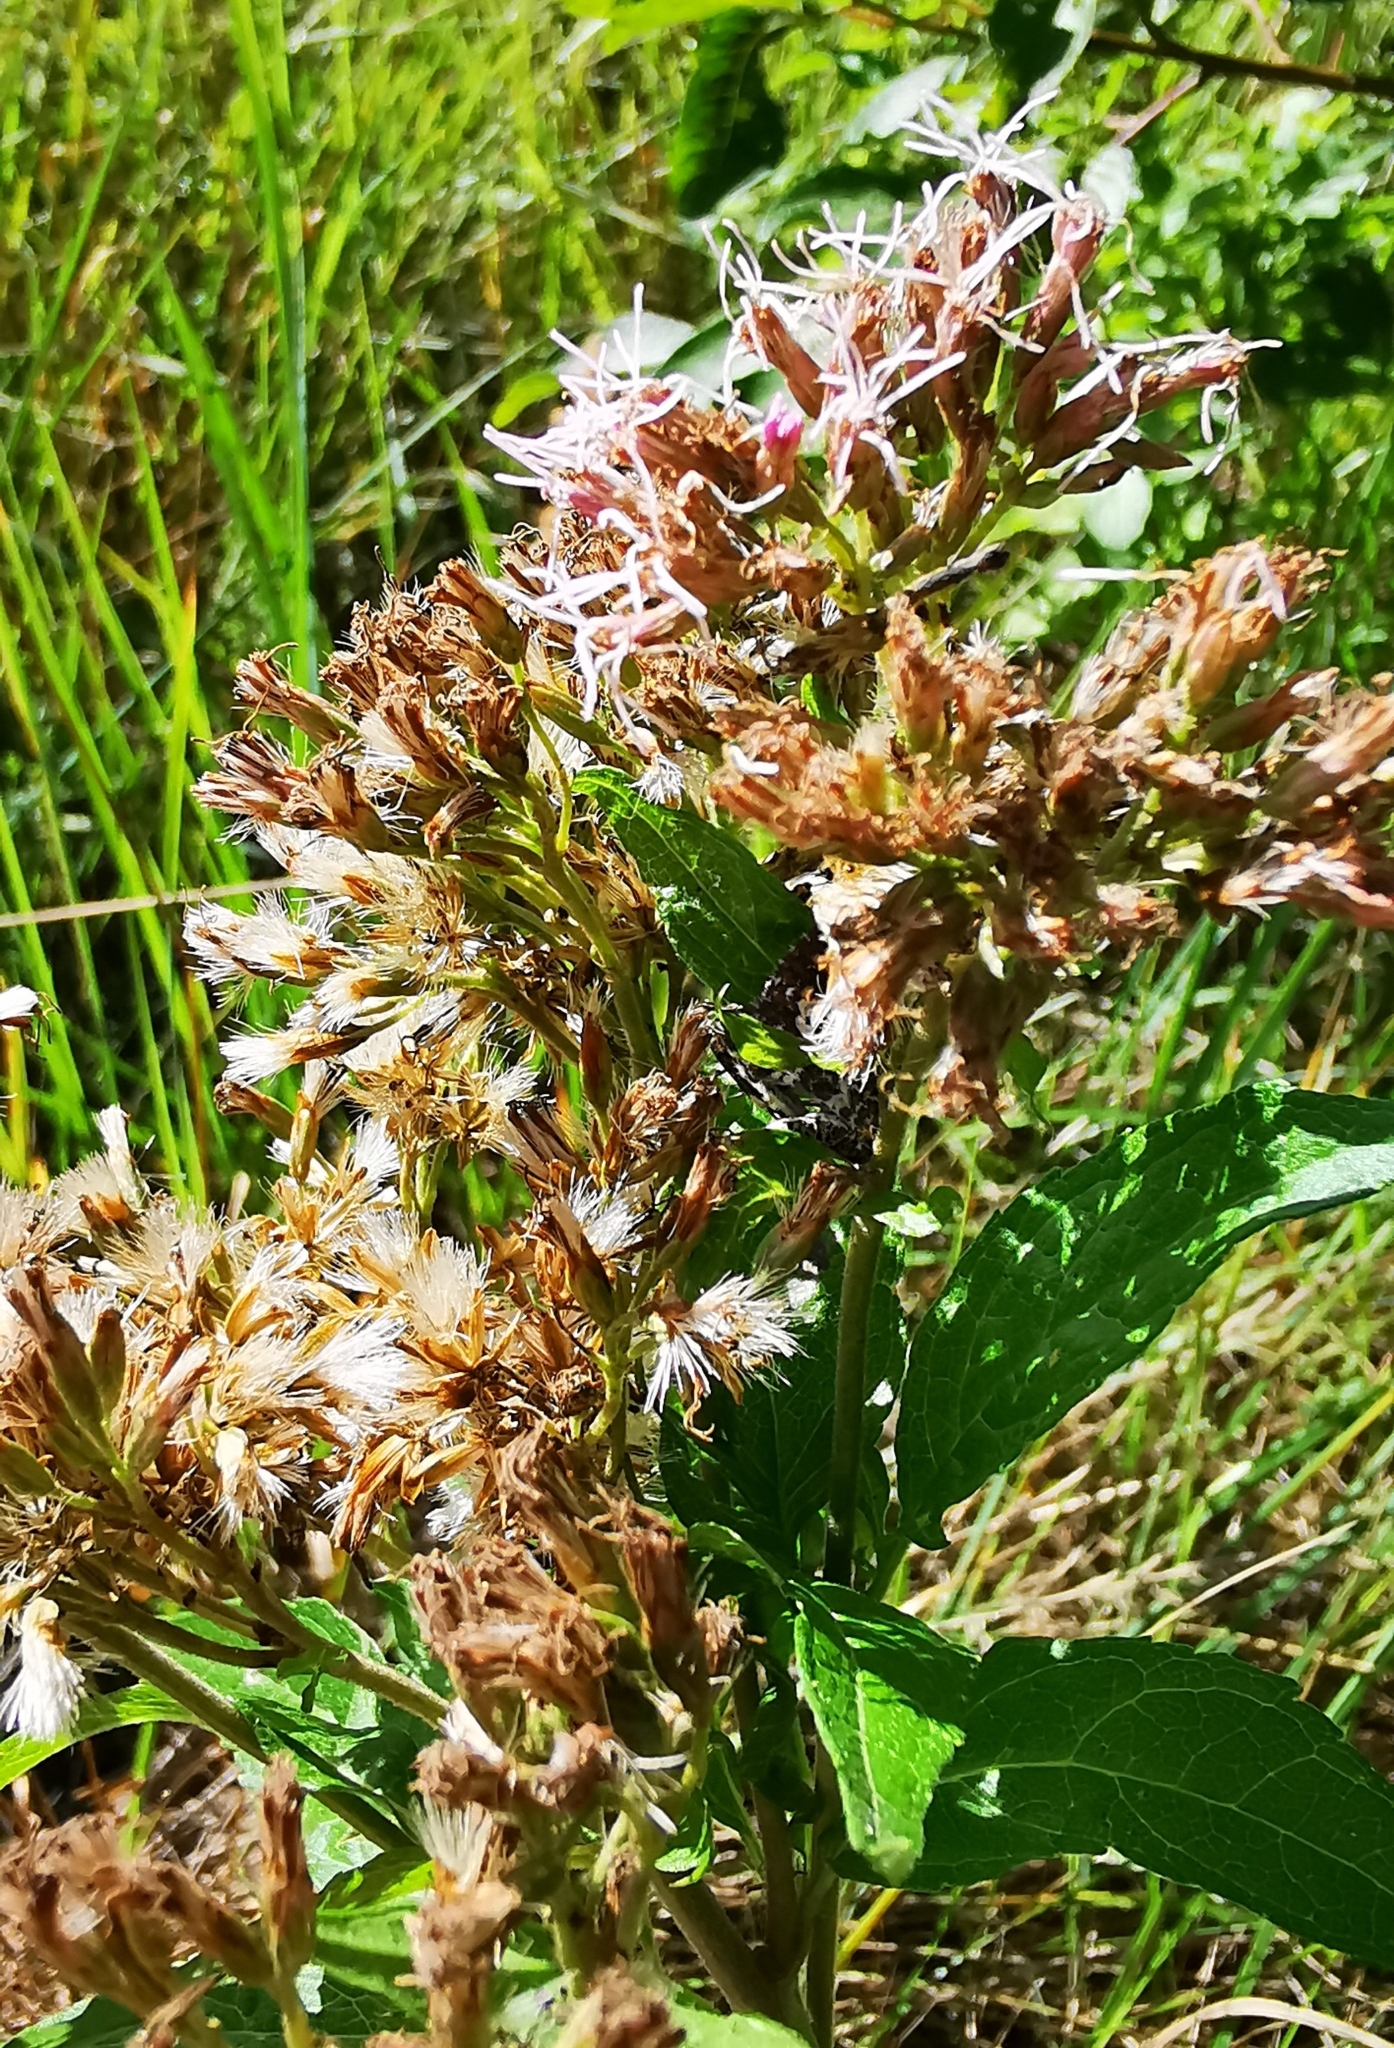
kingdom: Plantae
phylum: Tracheophyta
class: Magnoliopsida
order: Asterales
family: Asteraceae
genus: Eupatorium
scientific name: Eupatorium cannabinum
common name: Hemp-agrimony
